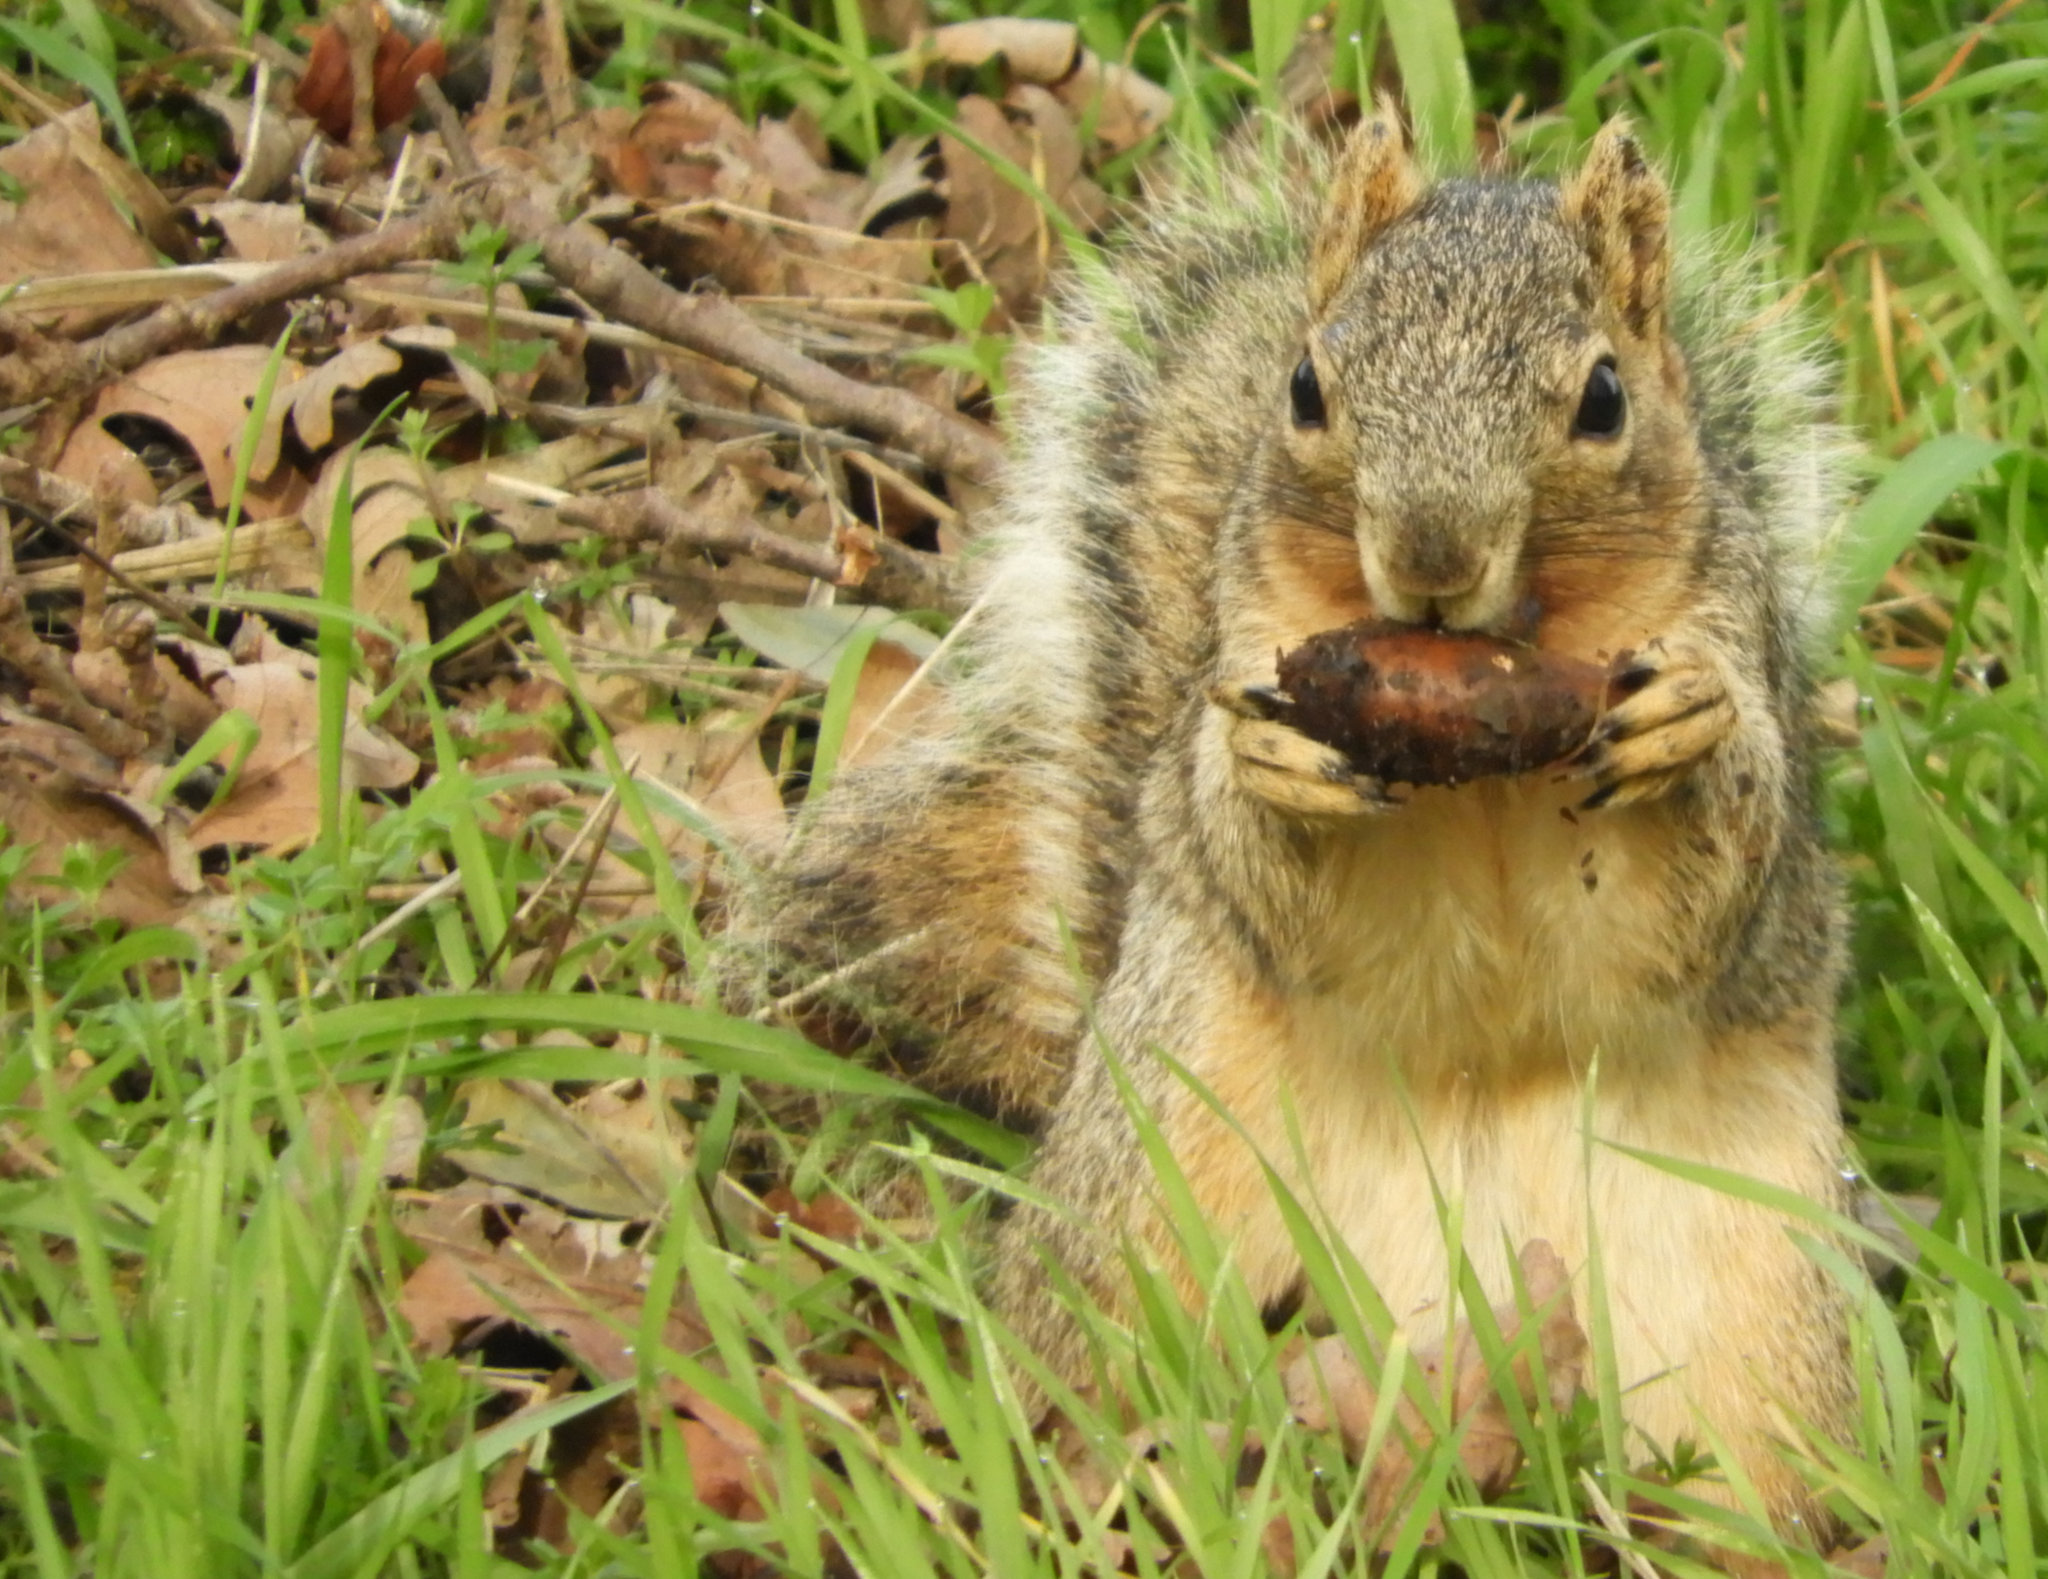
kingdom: Animalia
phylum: Chordata
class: Mammalia
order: Rodentia
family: Sciuridae
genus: Sciurus
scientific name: Sciurus niger
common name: Fox squirrel
